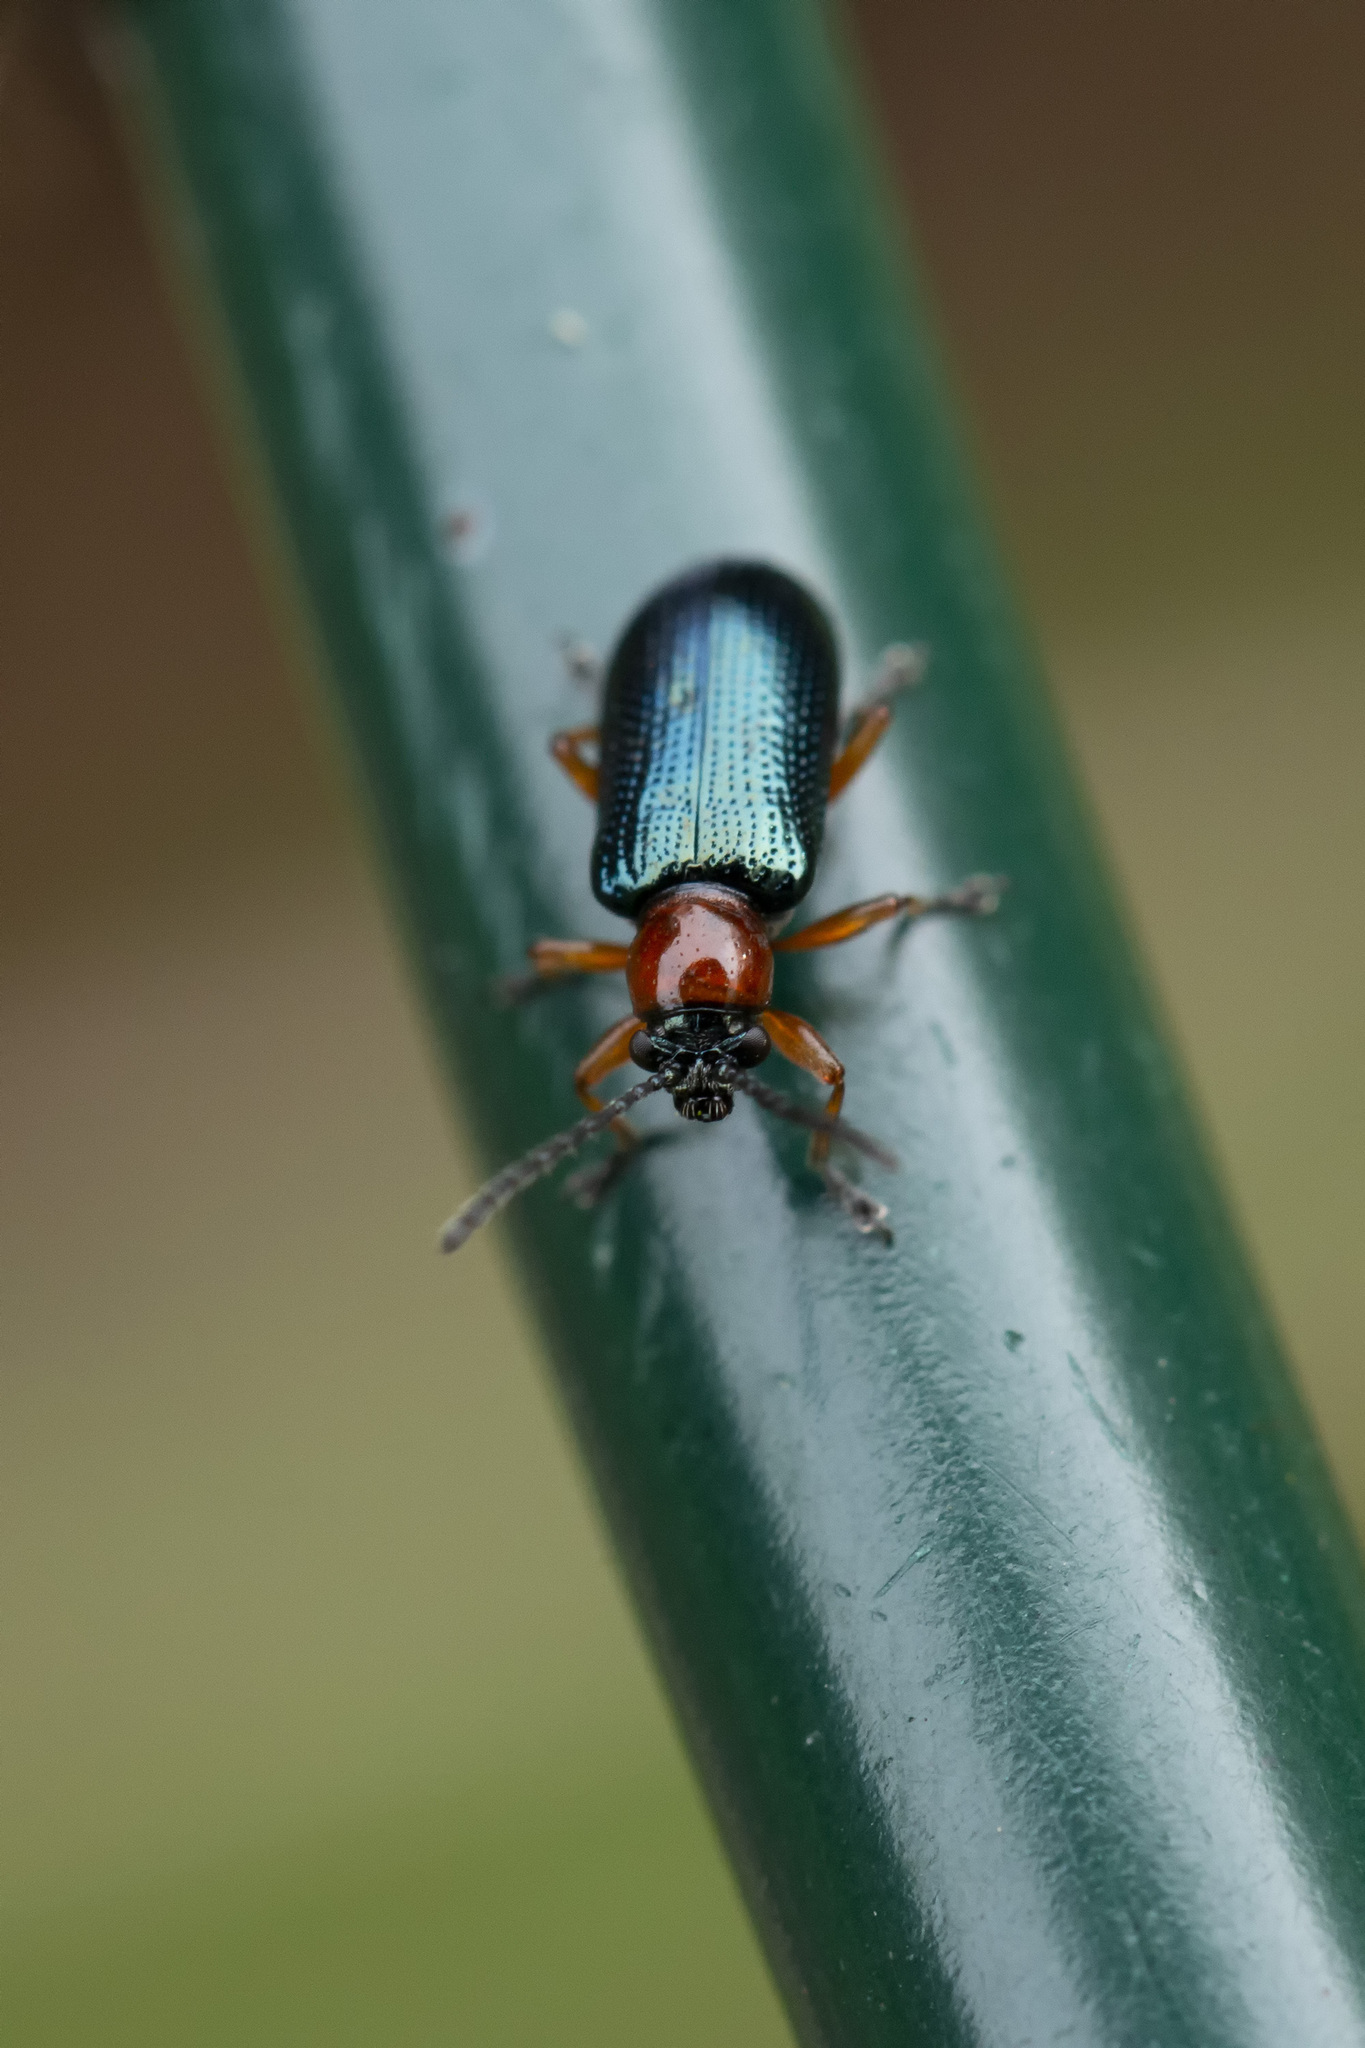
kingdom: Animalia
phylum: Arthropoda
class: Insecta
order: Coleoptera
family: Chrysomelidae
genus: Oulema
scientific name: Oulema melanopus
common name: Cereal leaf beetle
